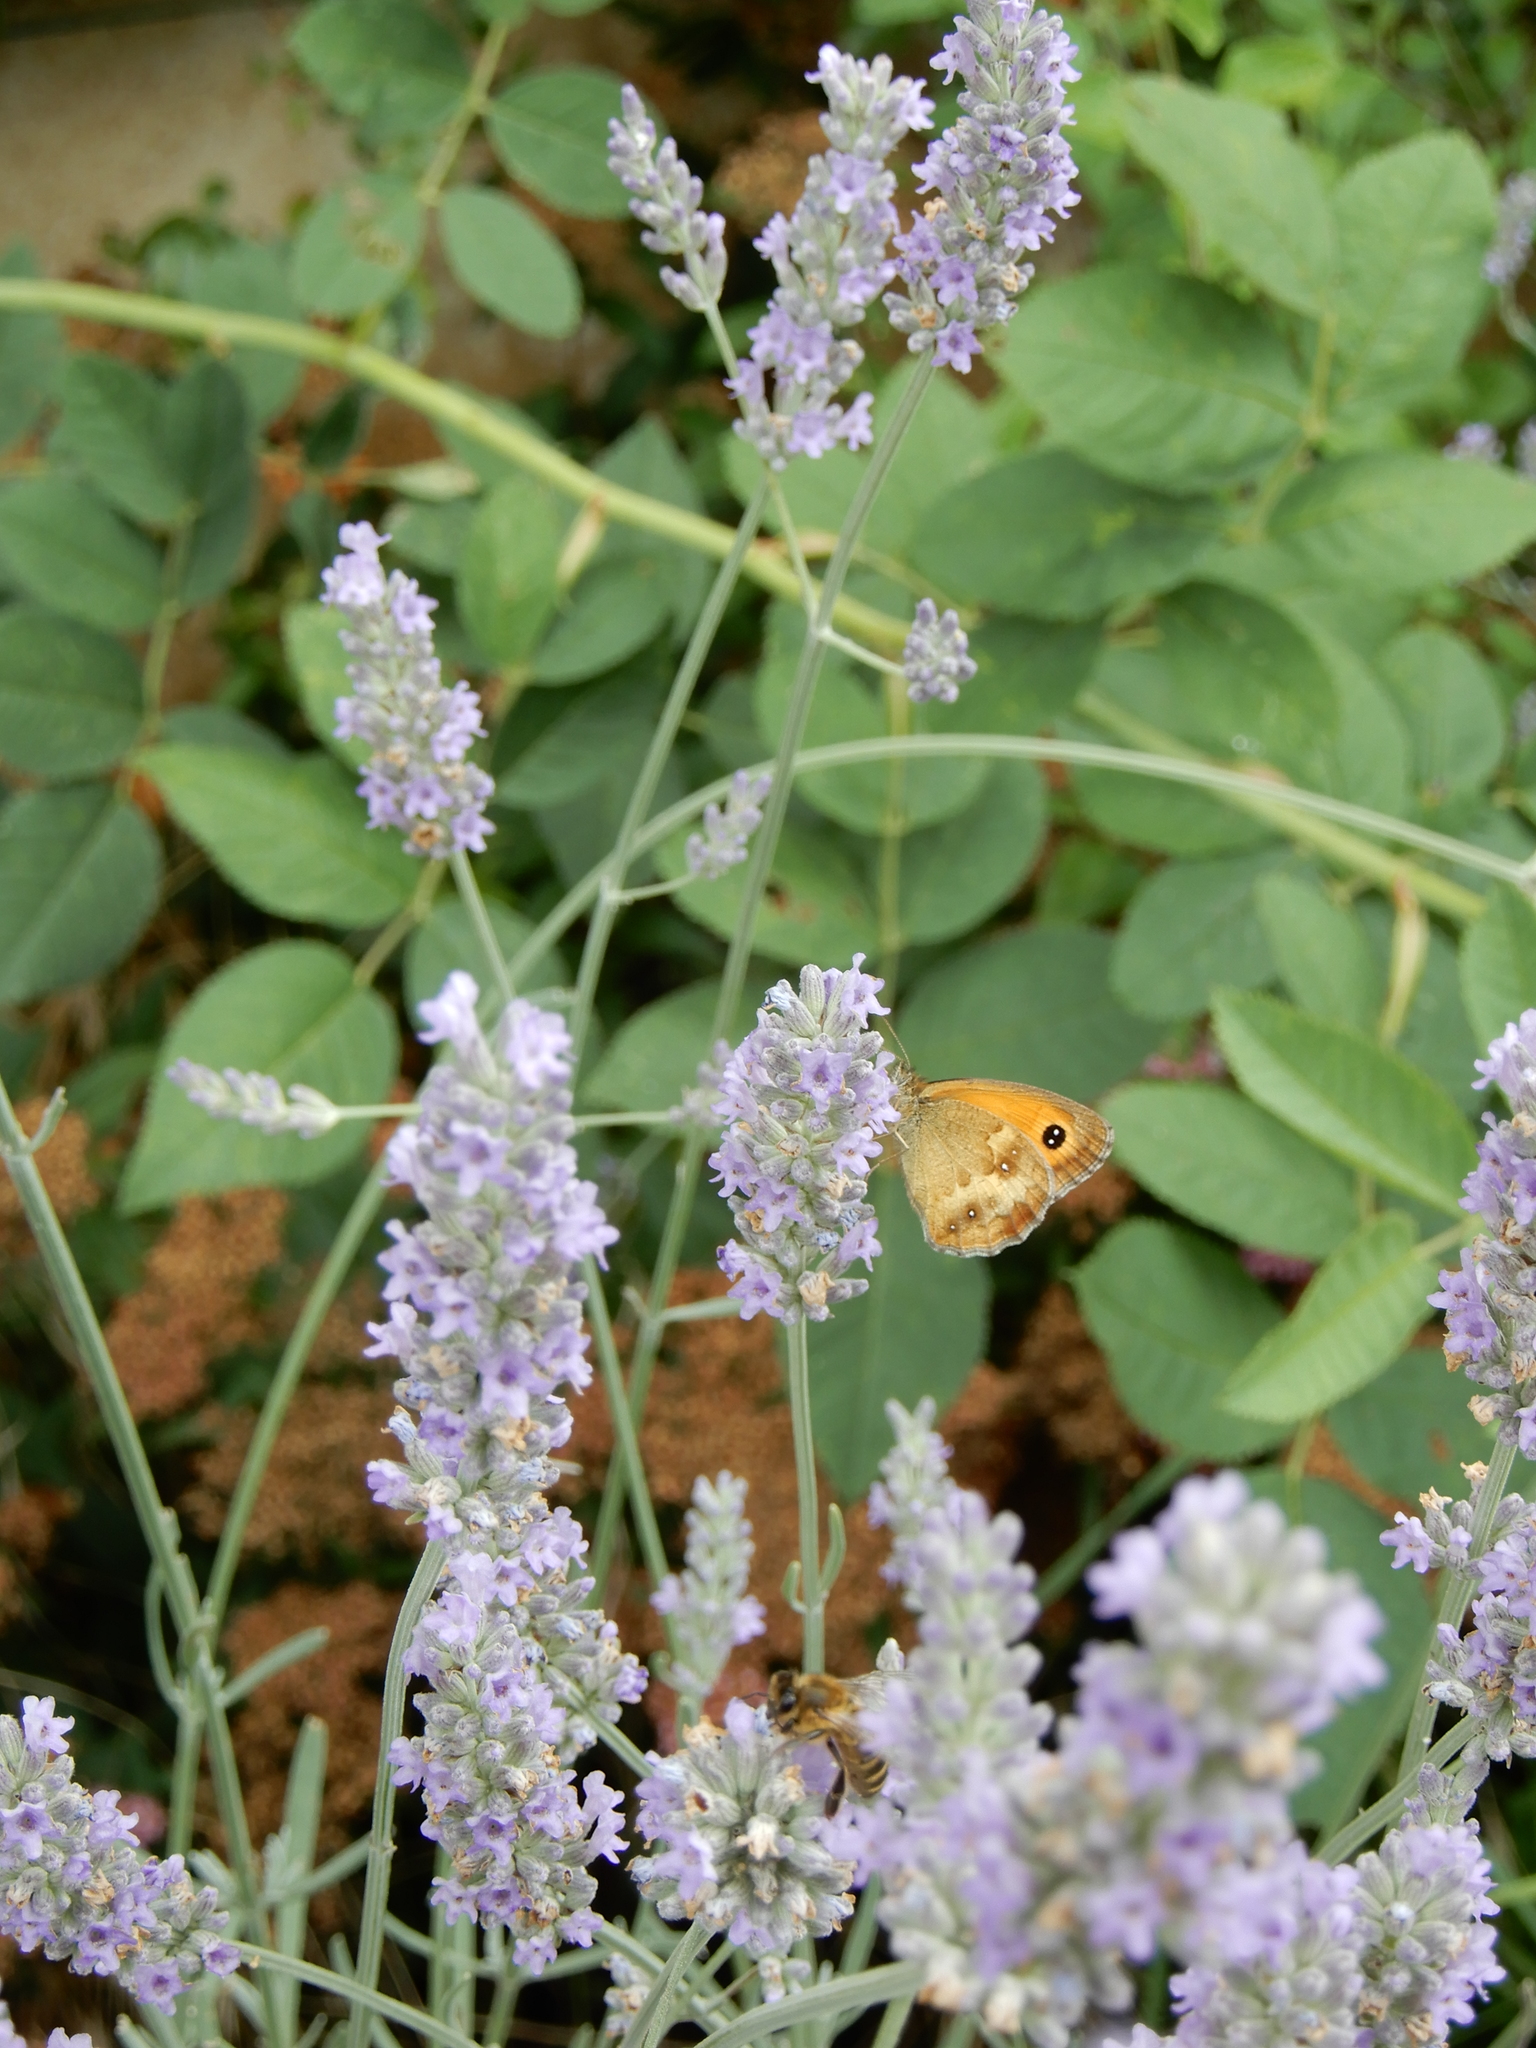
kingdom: Animalia
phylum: Arthropoda
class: Insecta
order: Lepidoptera
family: Nymphalidae
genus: Pyronia
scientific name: Pyronia tithonus
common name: Gatekeeper
